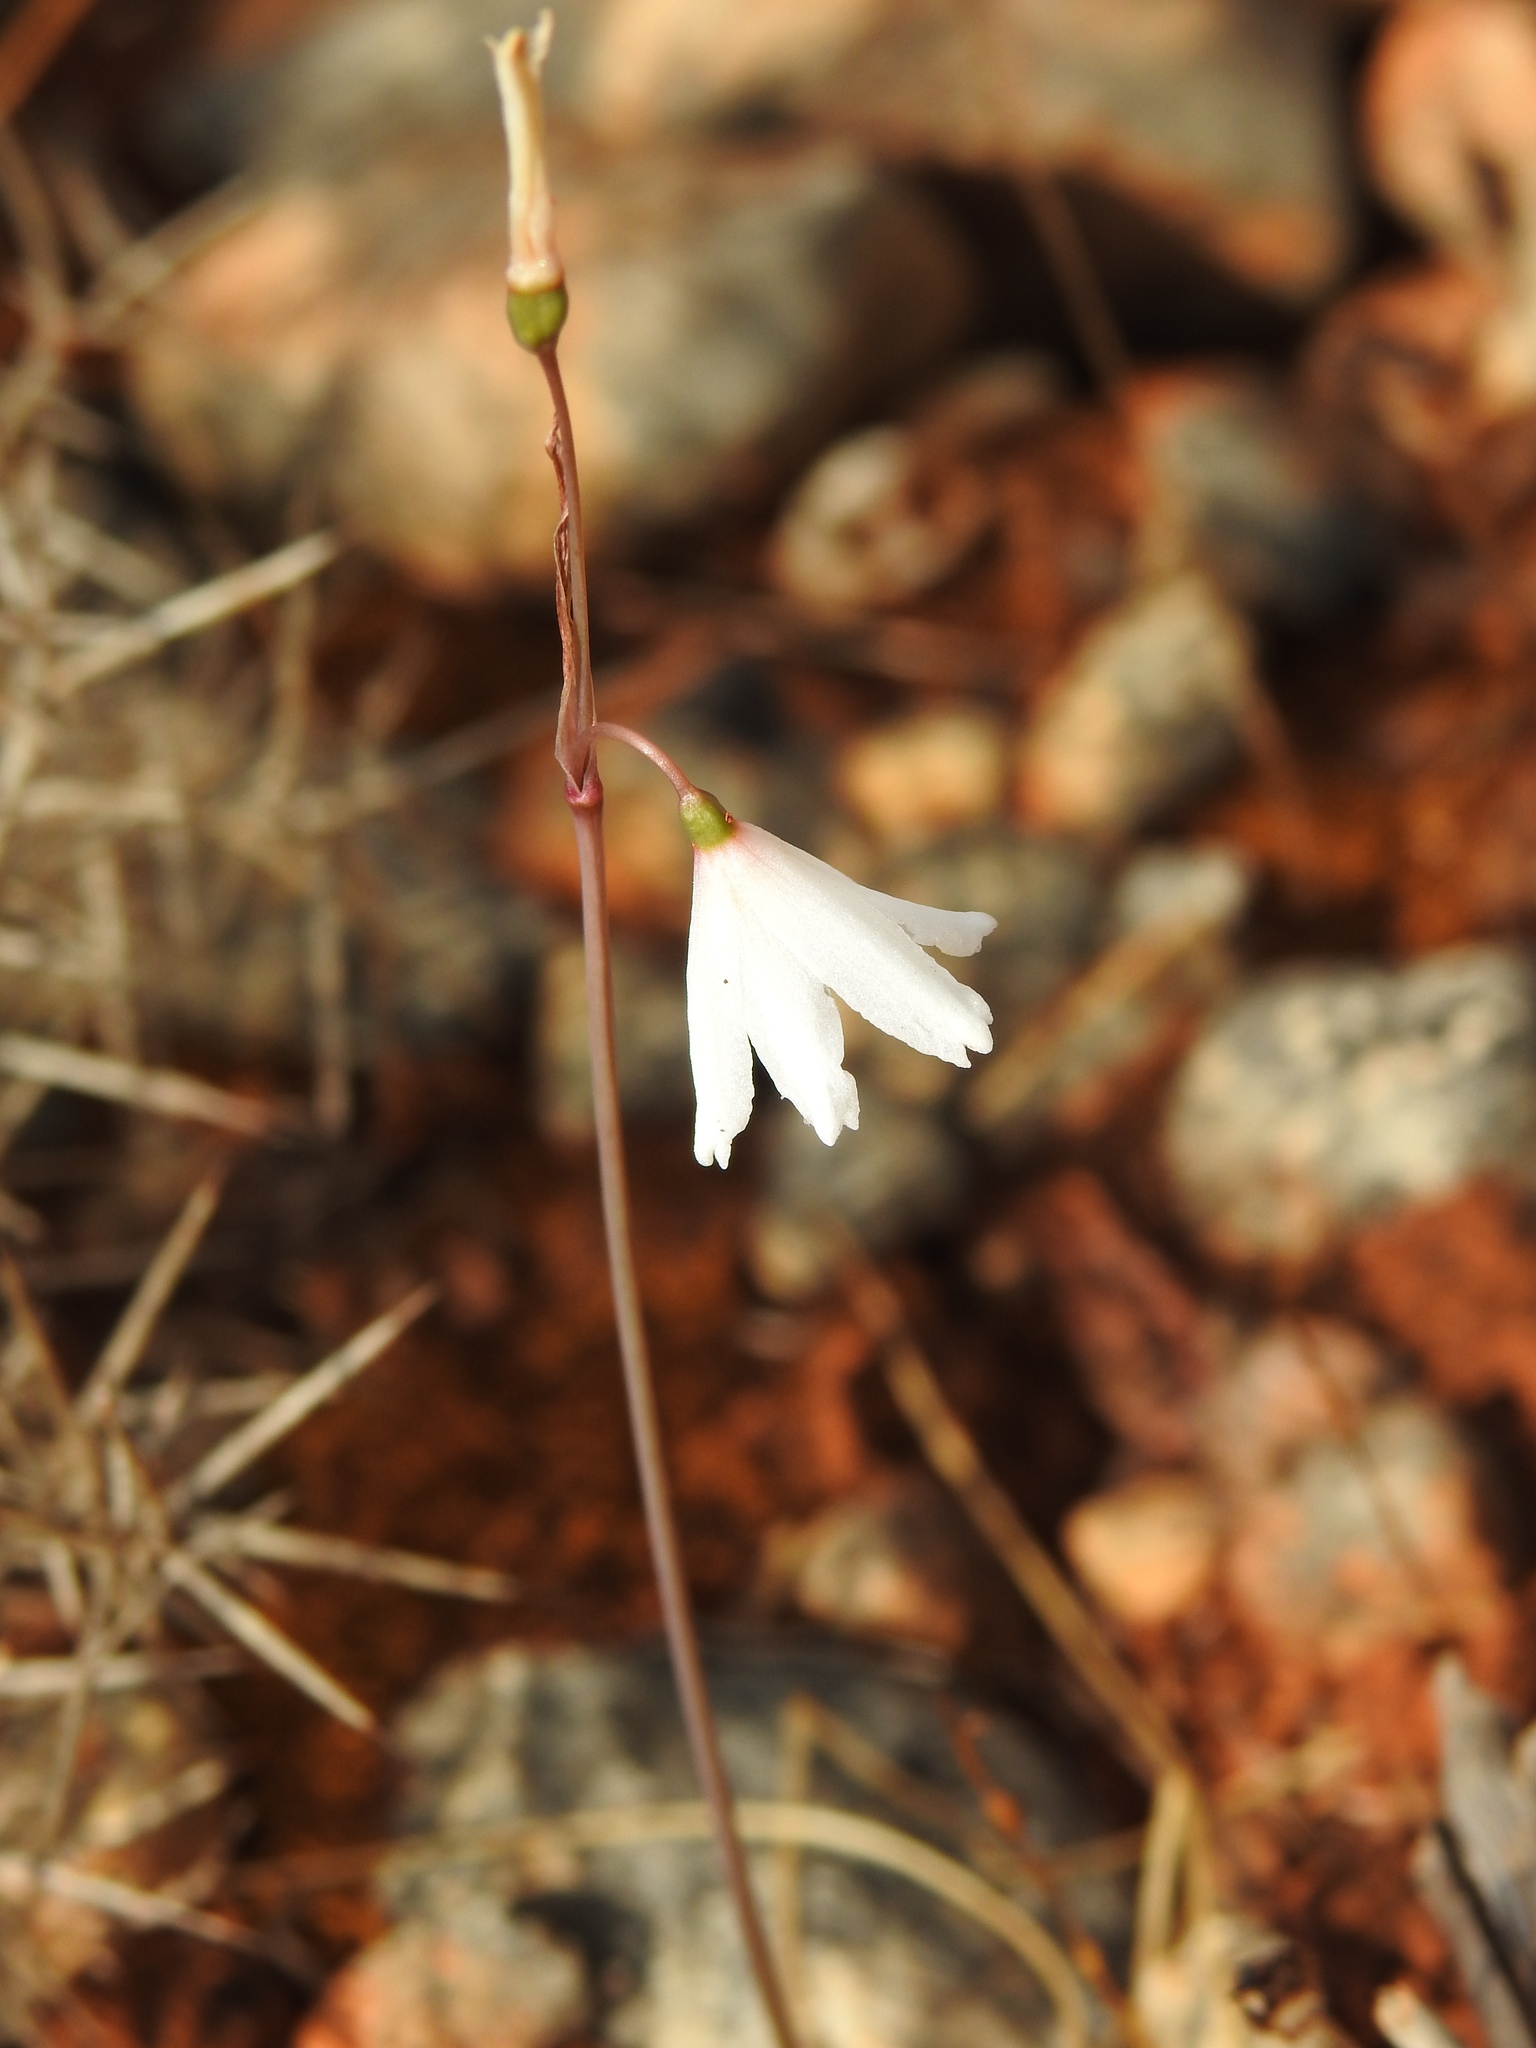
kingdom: Plantae
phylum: Tracheophyta
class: Liliopsida
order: Asparagales
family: Amaryllidaceae
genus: Acis
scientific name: Acis autumnalis
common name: Autumn snowflake
